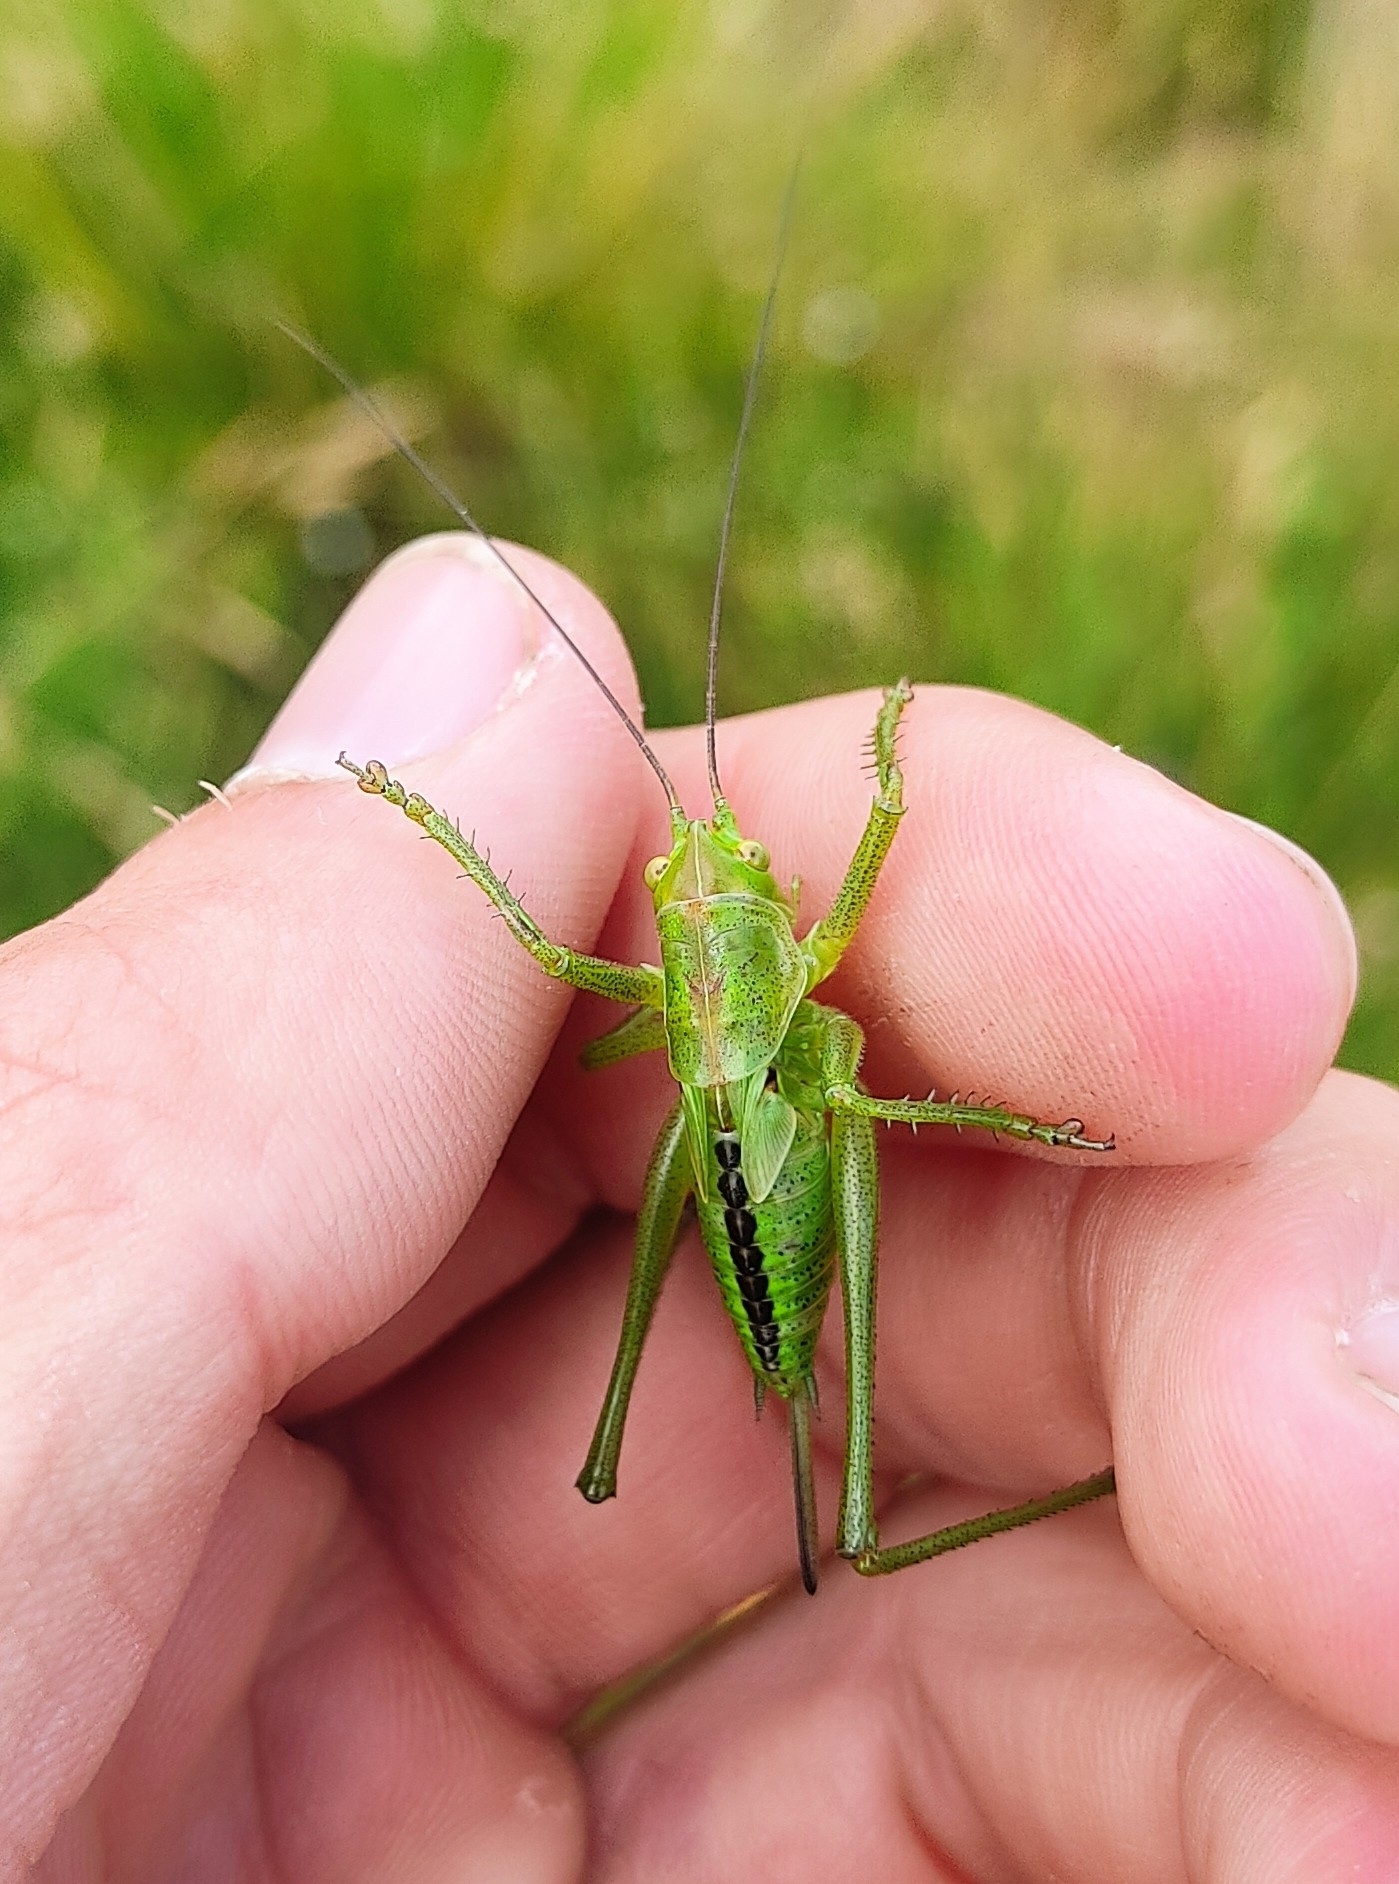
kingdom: Animalia
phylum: Arthropoda
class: Insecta
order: Orthoptera
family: Tettigoniidae
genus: Tettigonia
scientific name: Tettigonia viridissima
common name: Great green bush-cricket
